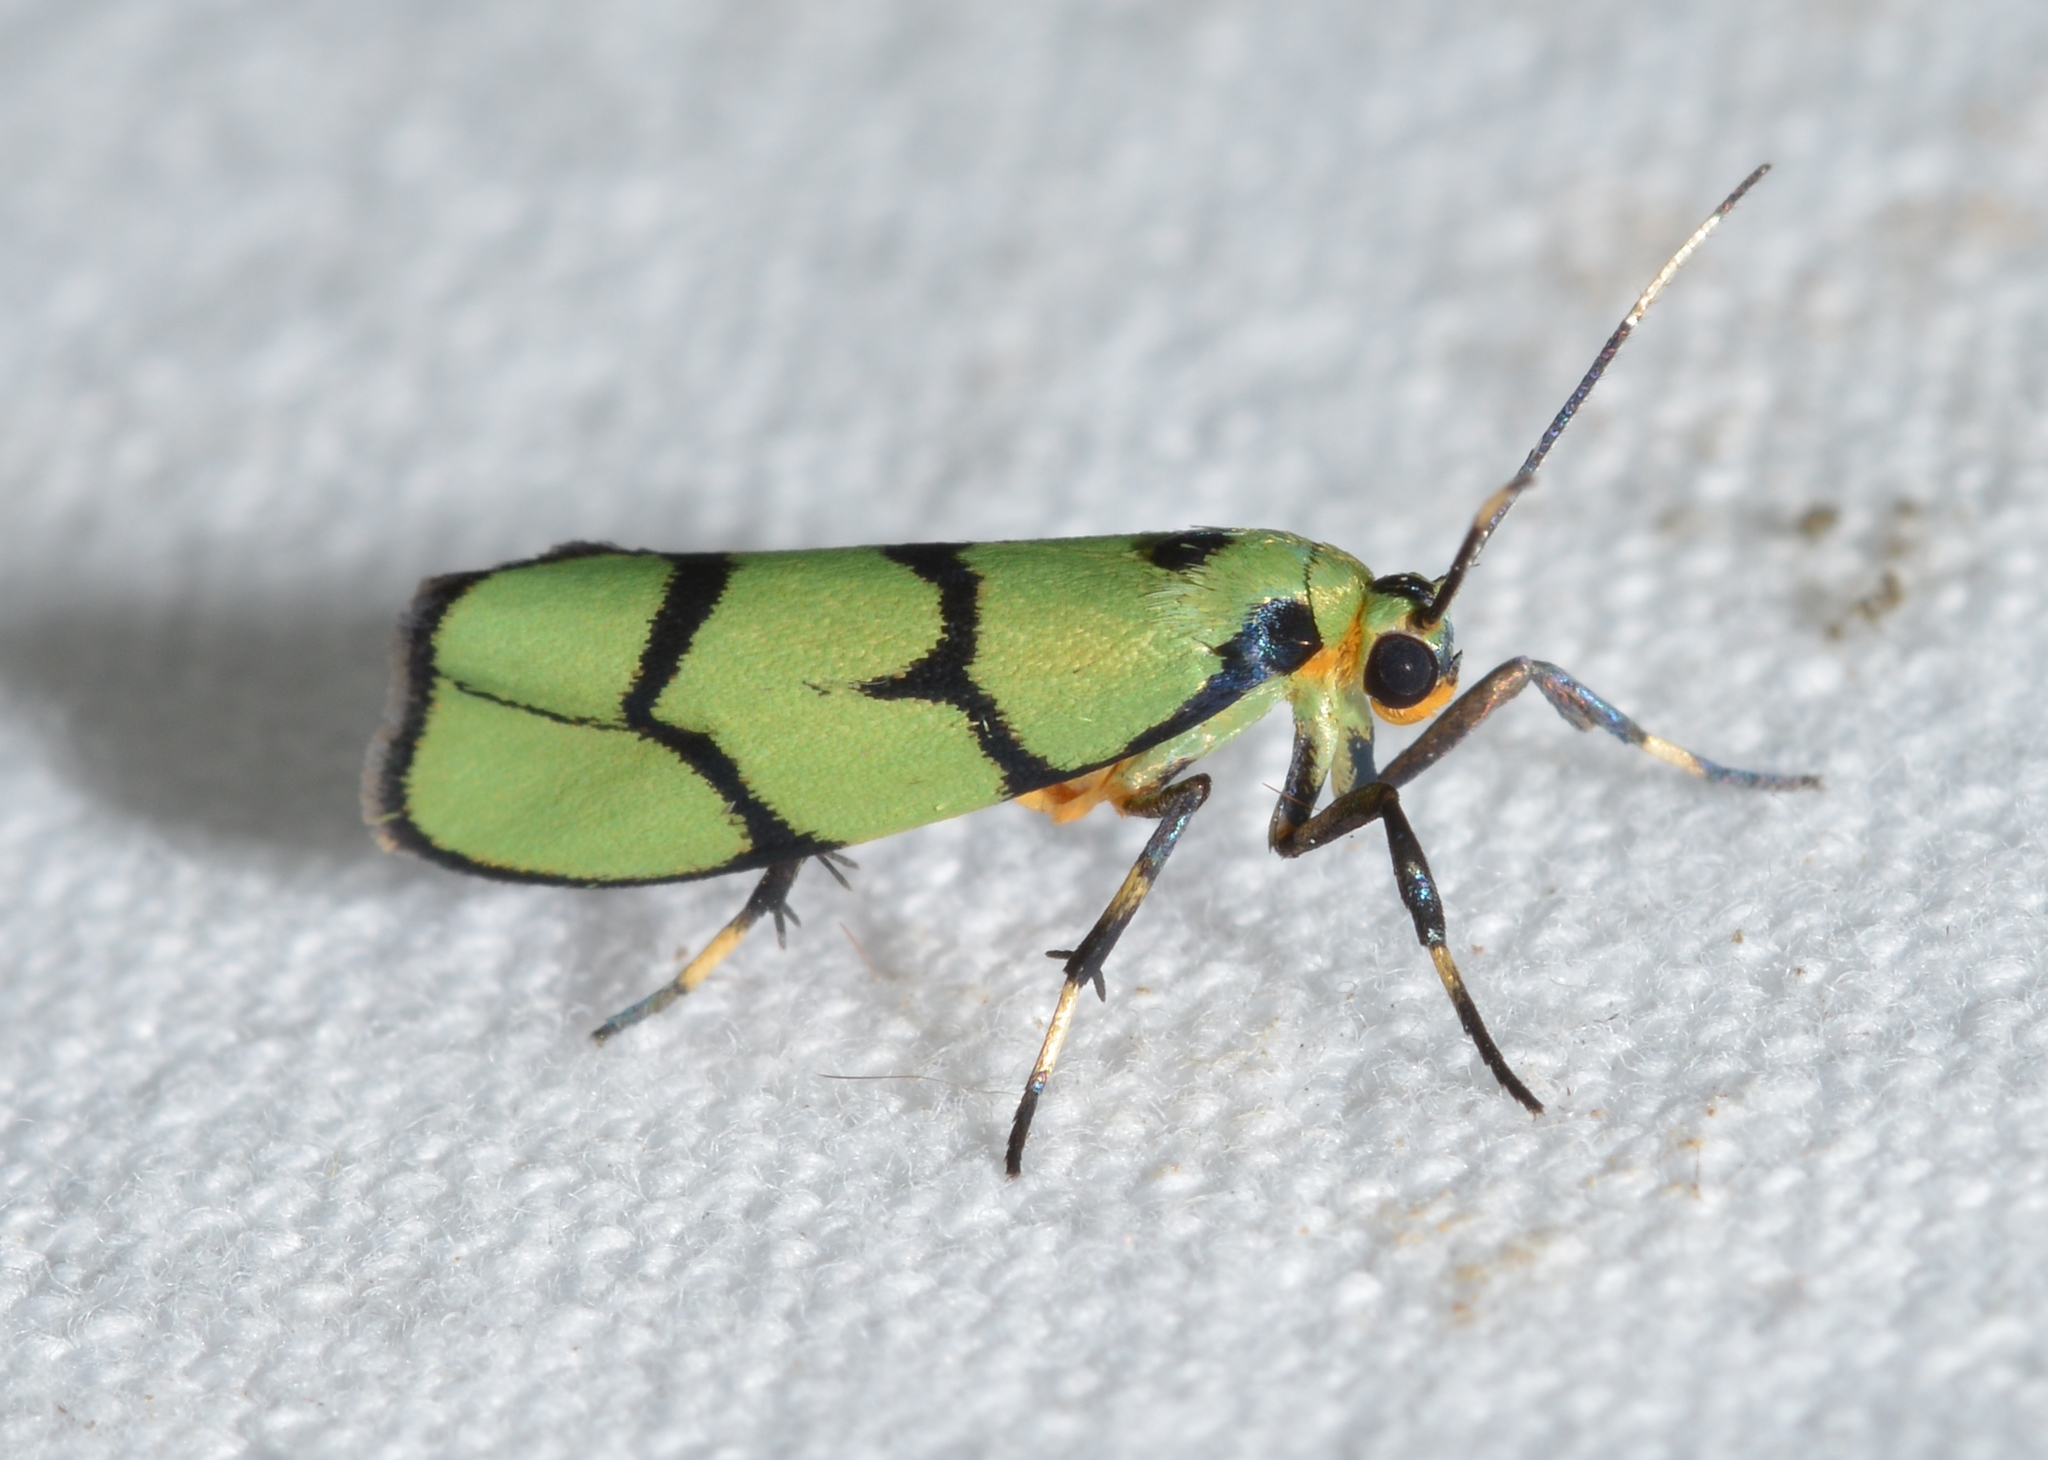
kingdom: Animalia
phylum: Arthropoda
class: Insecta
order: Lepidoptera
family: Erebidae
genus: Cisthene
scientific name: Cisthene citrina
